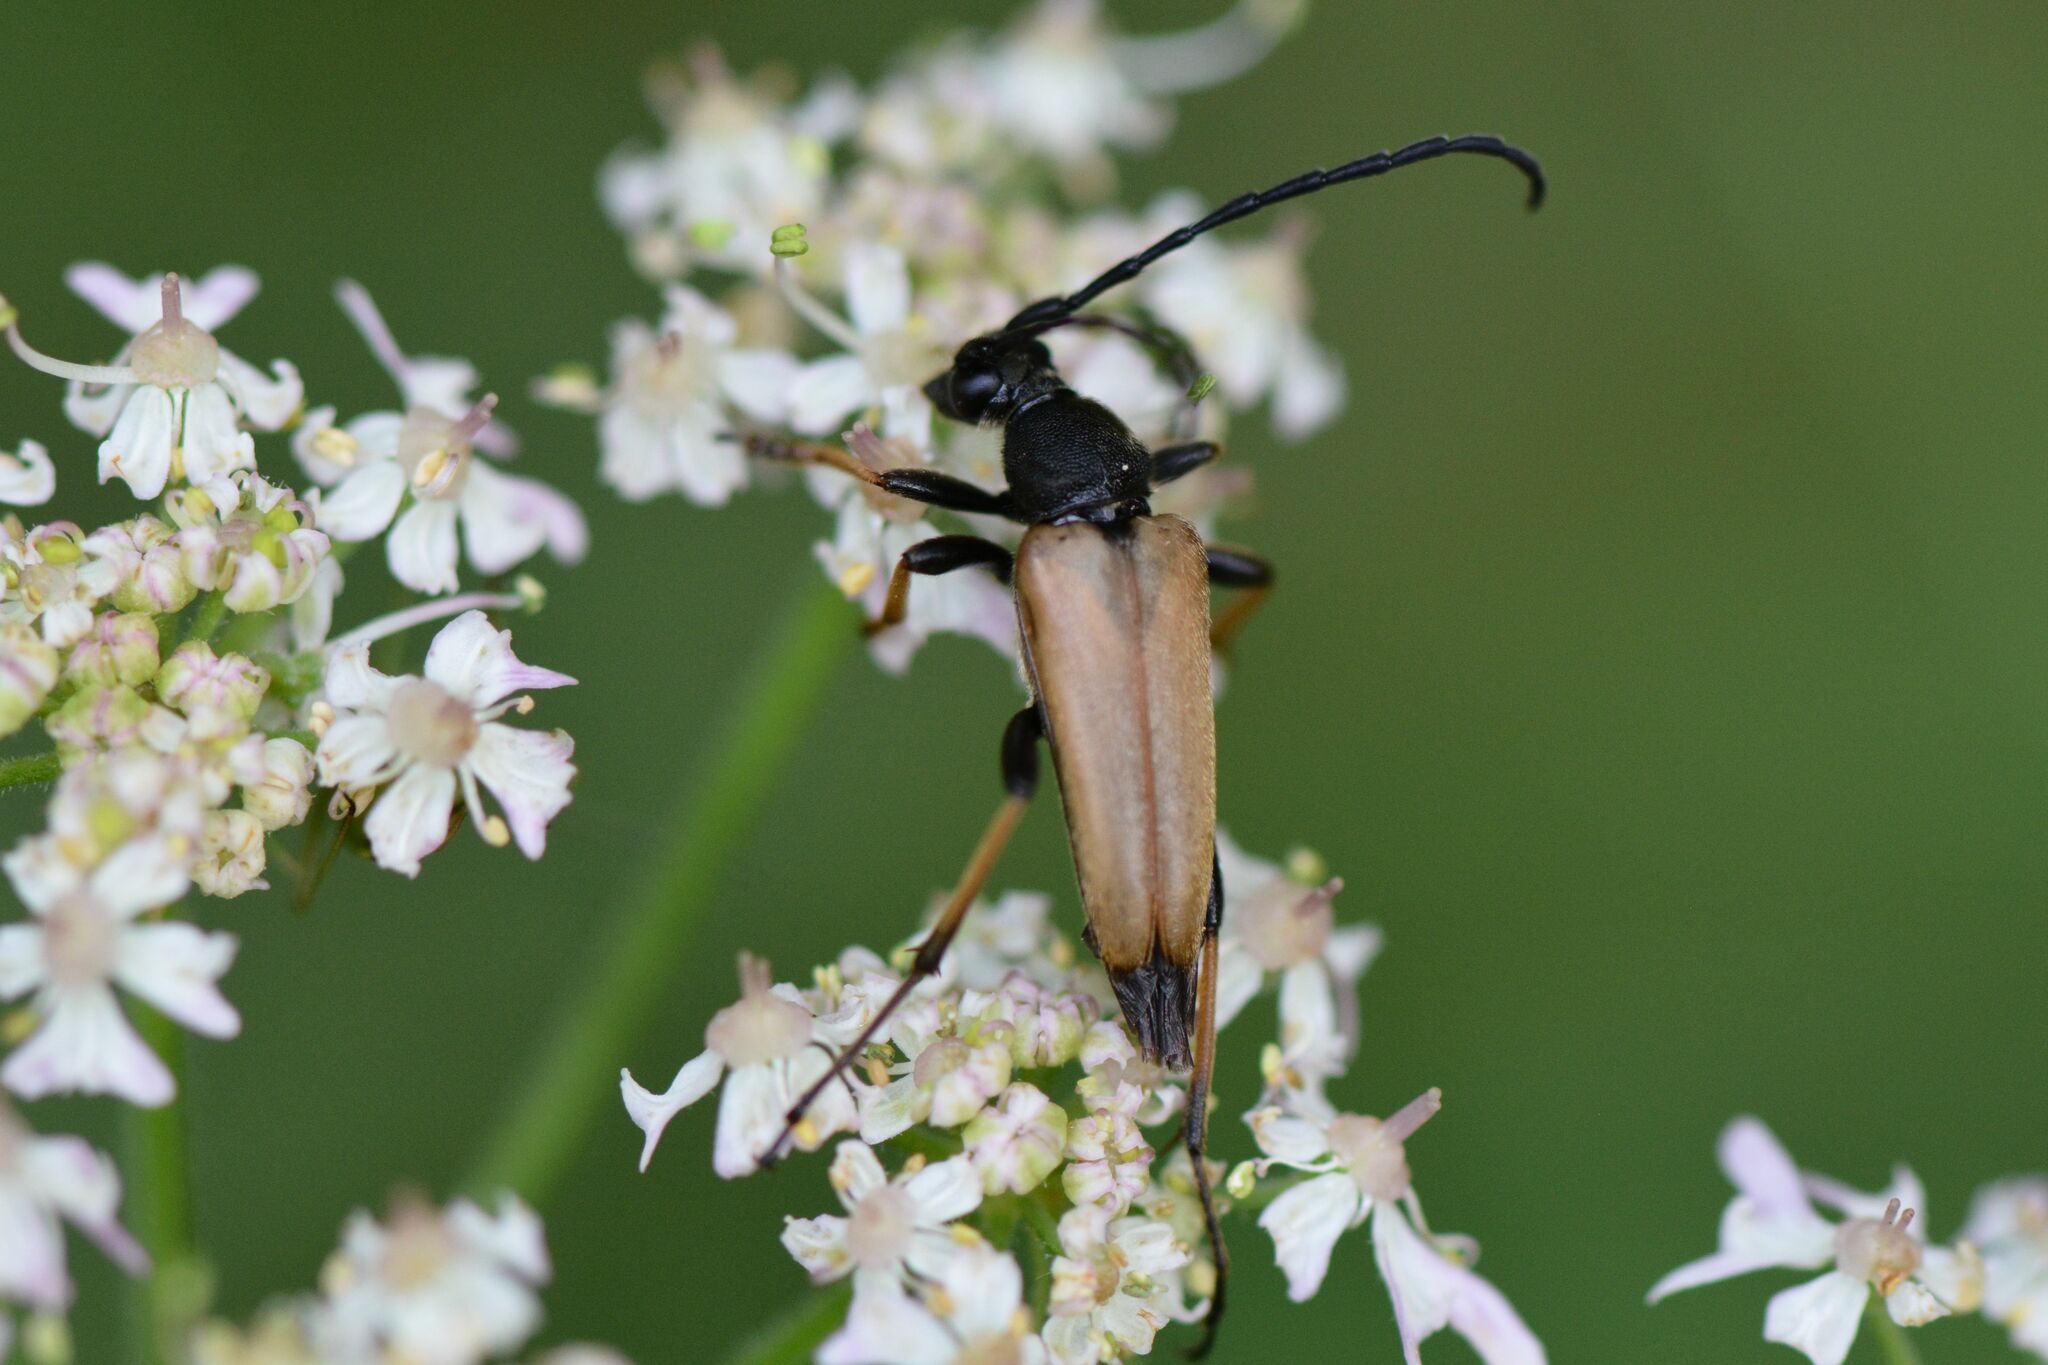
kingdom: Animalia
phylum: Arthropoda
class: Insecta
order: Coleoptera
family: Cerambycidae
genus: Stictoleptura
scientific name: Stictoleptura rubra
